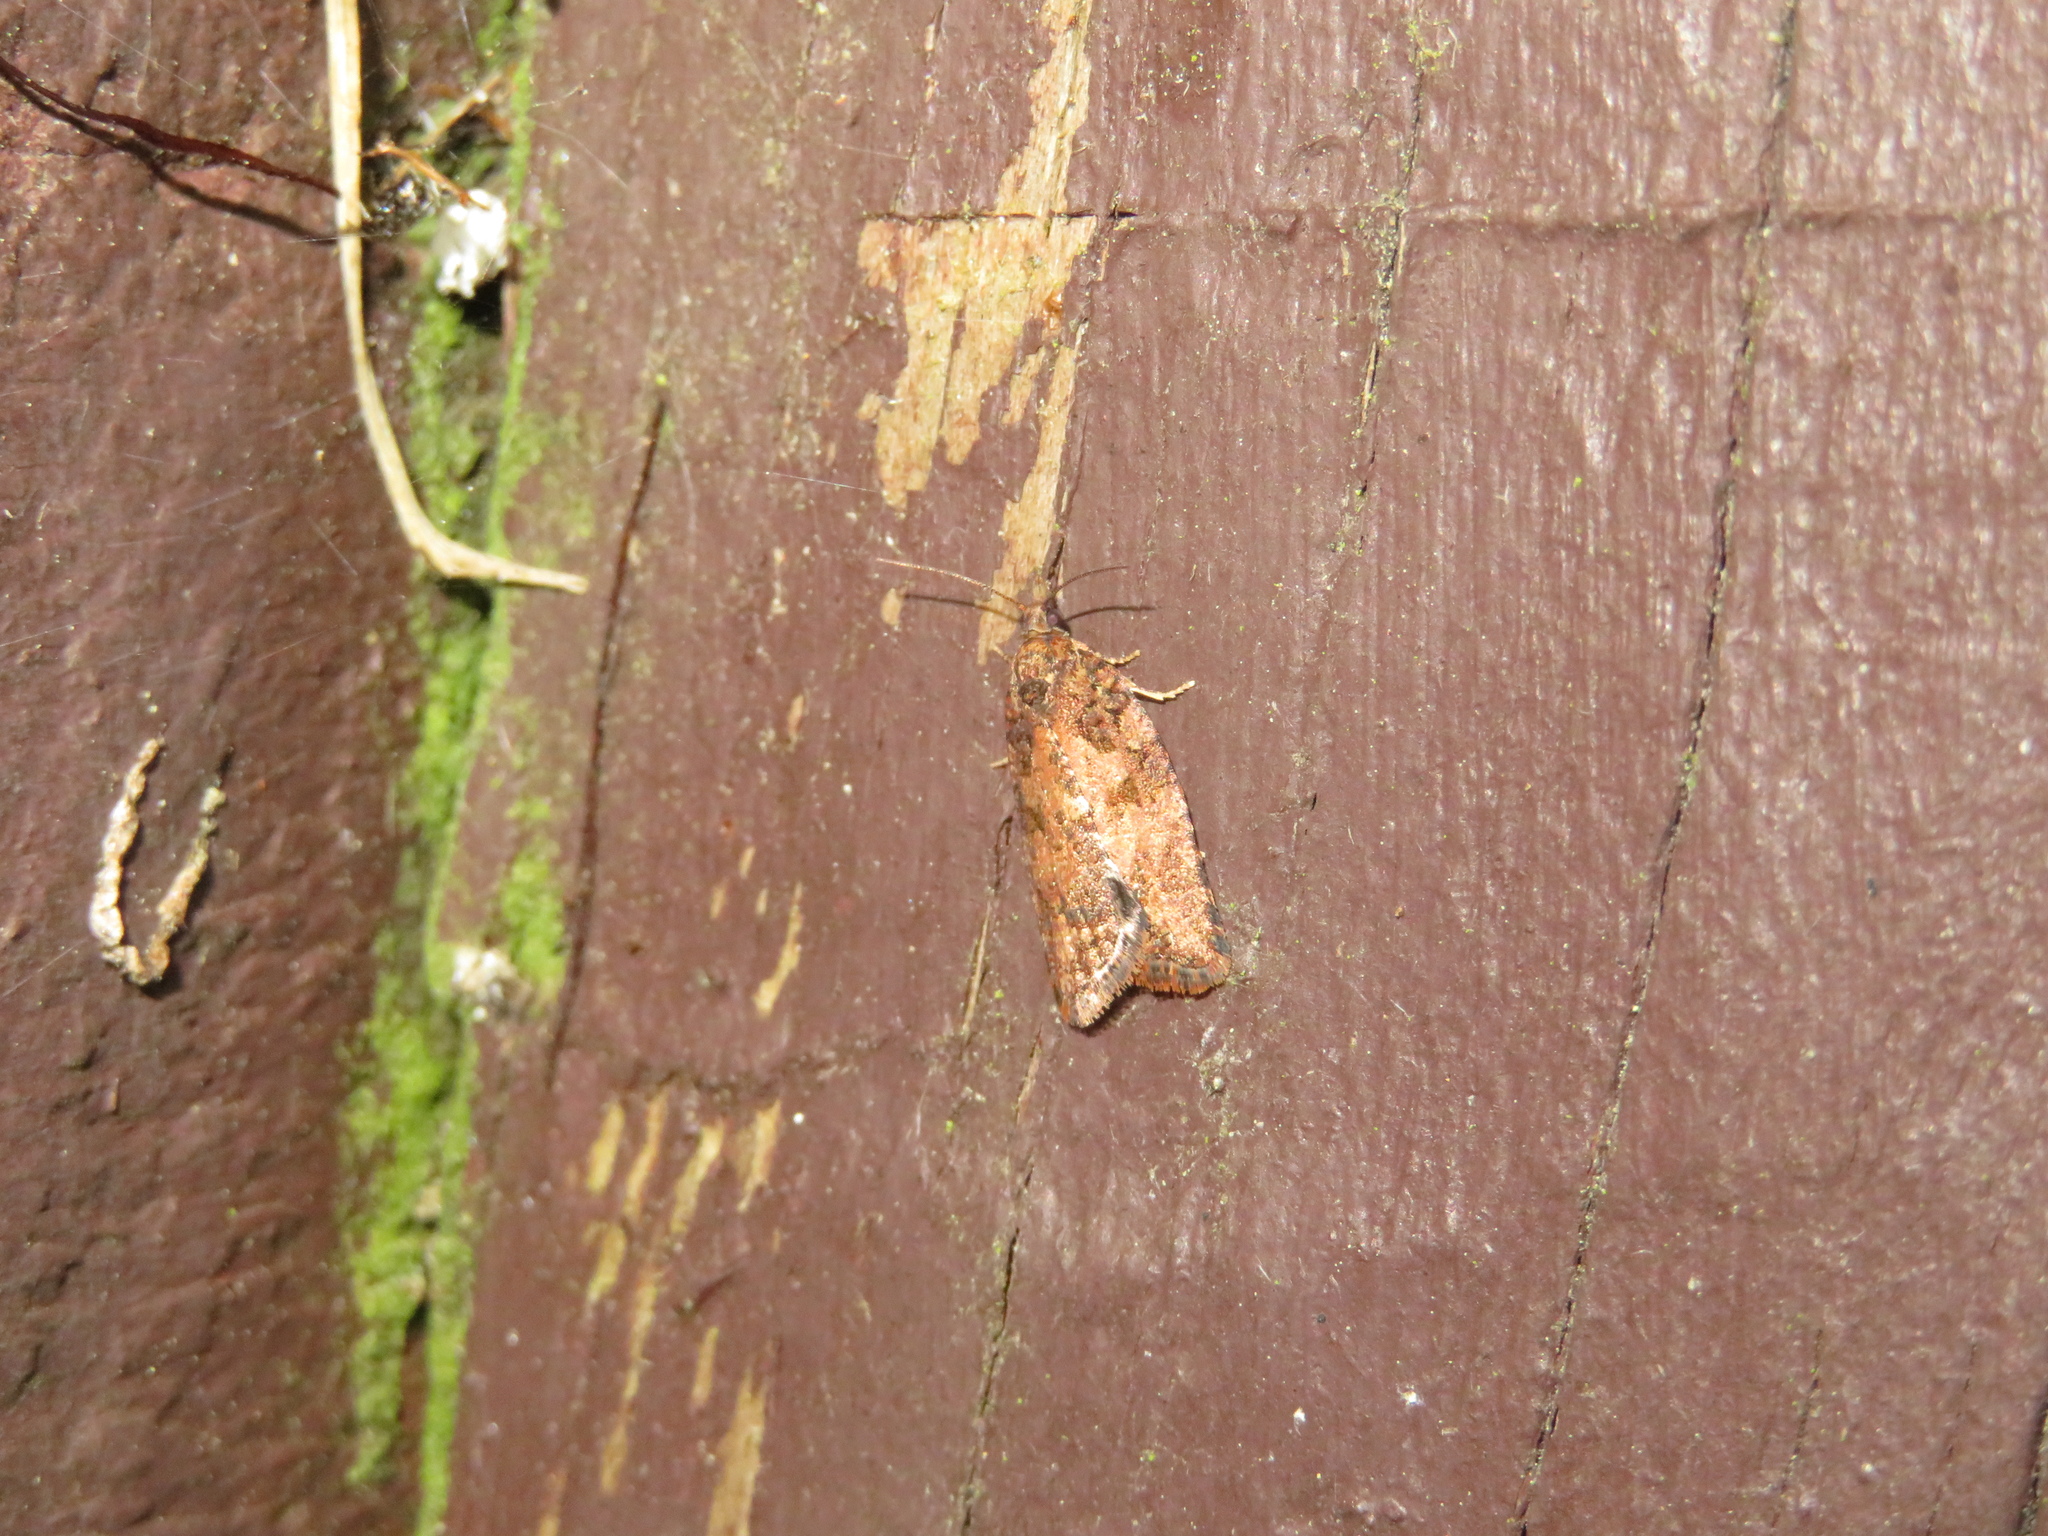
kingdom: Animalia
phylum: Arthropoda
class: Insecta
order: Lepidoptera
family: Tortricidae
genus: Capua
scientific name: Capua intractana
